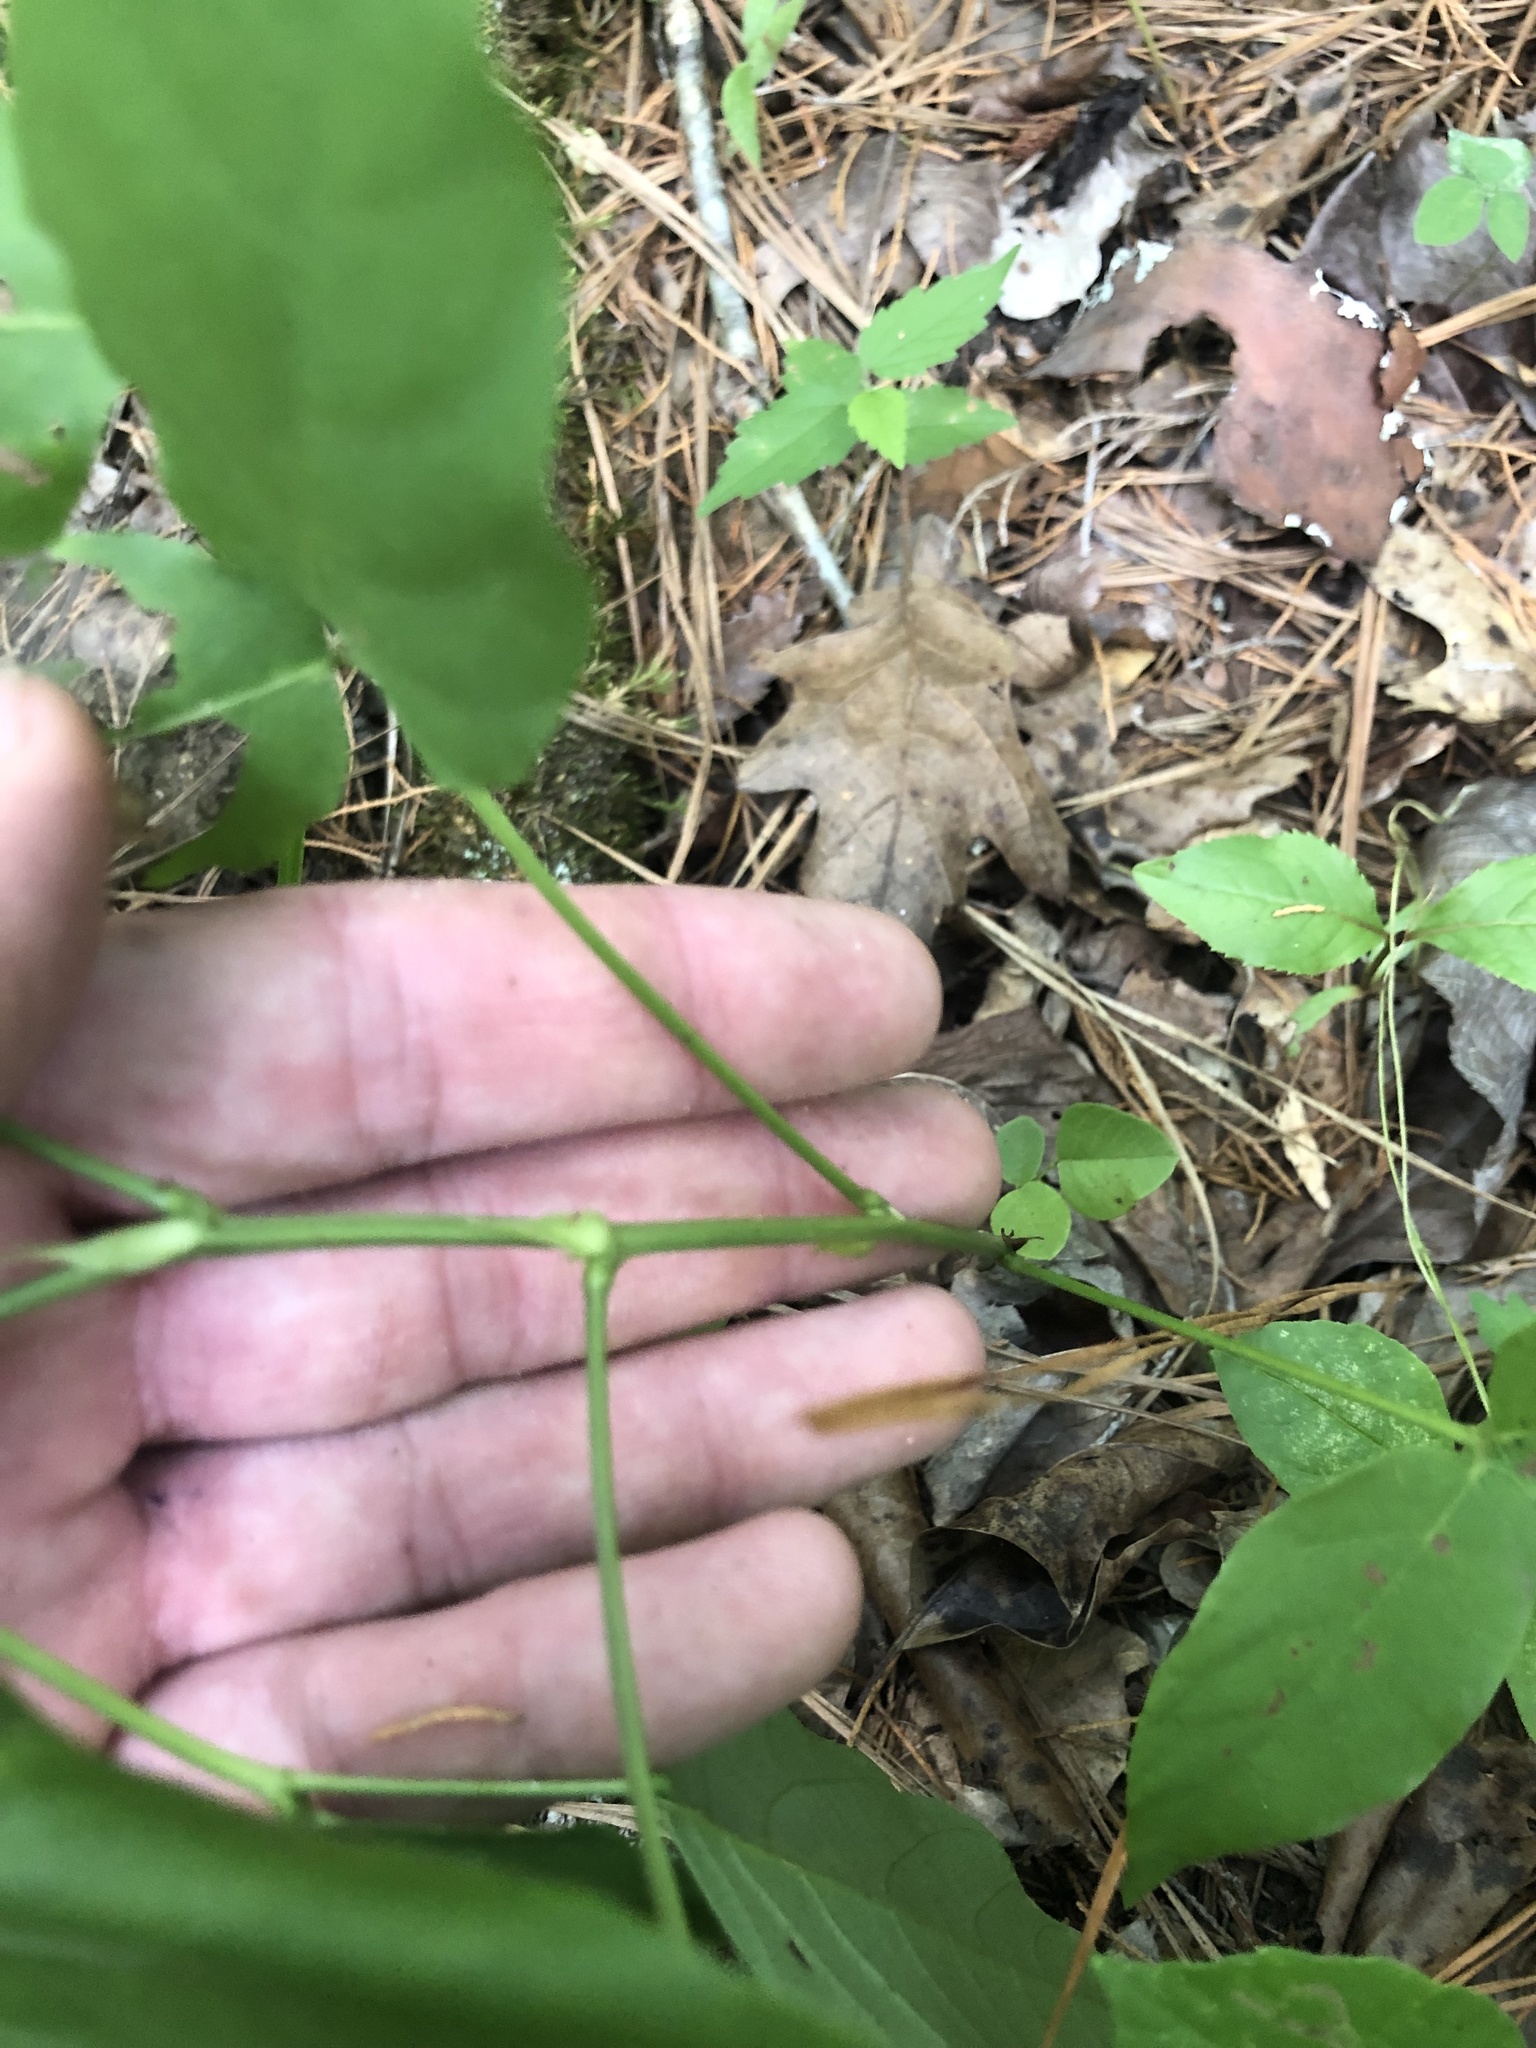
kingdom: Plantae
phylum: Tracheophyta
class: Magnoliopsida
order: Fabales
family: Fabaceae
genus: Desmodium
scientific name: Desmodium cuspidatum
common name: Big tick trefoil
